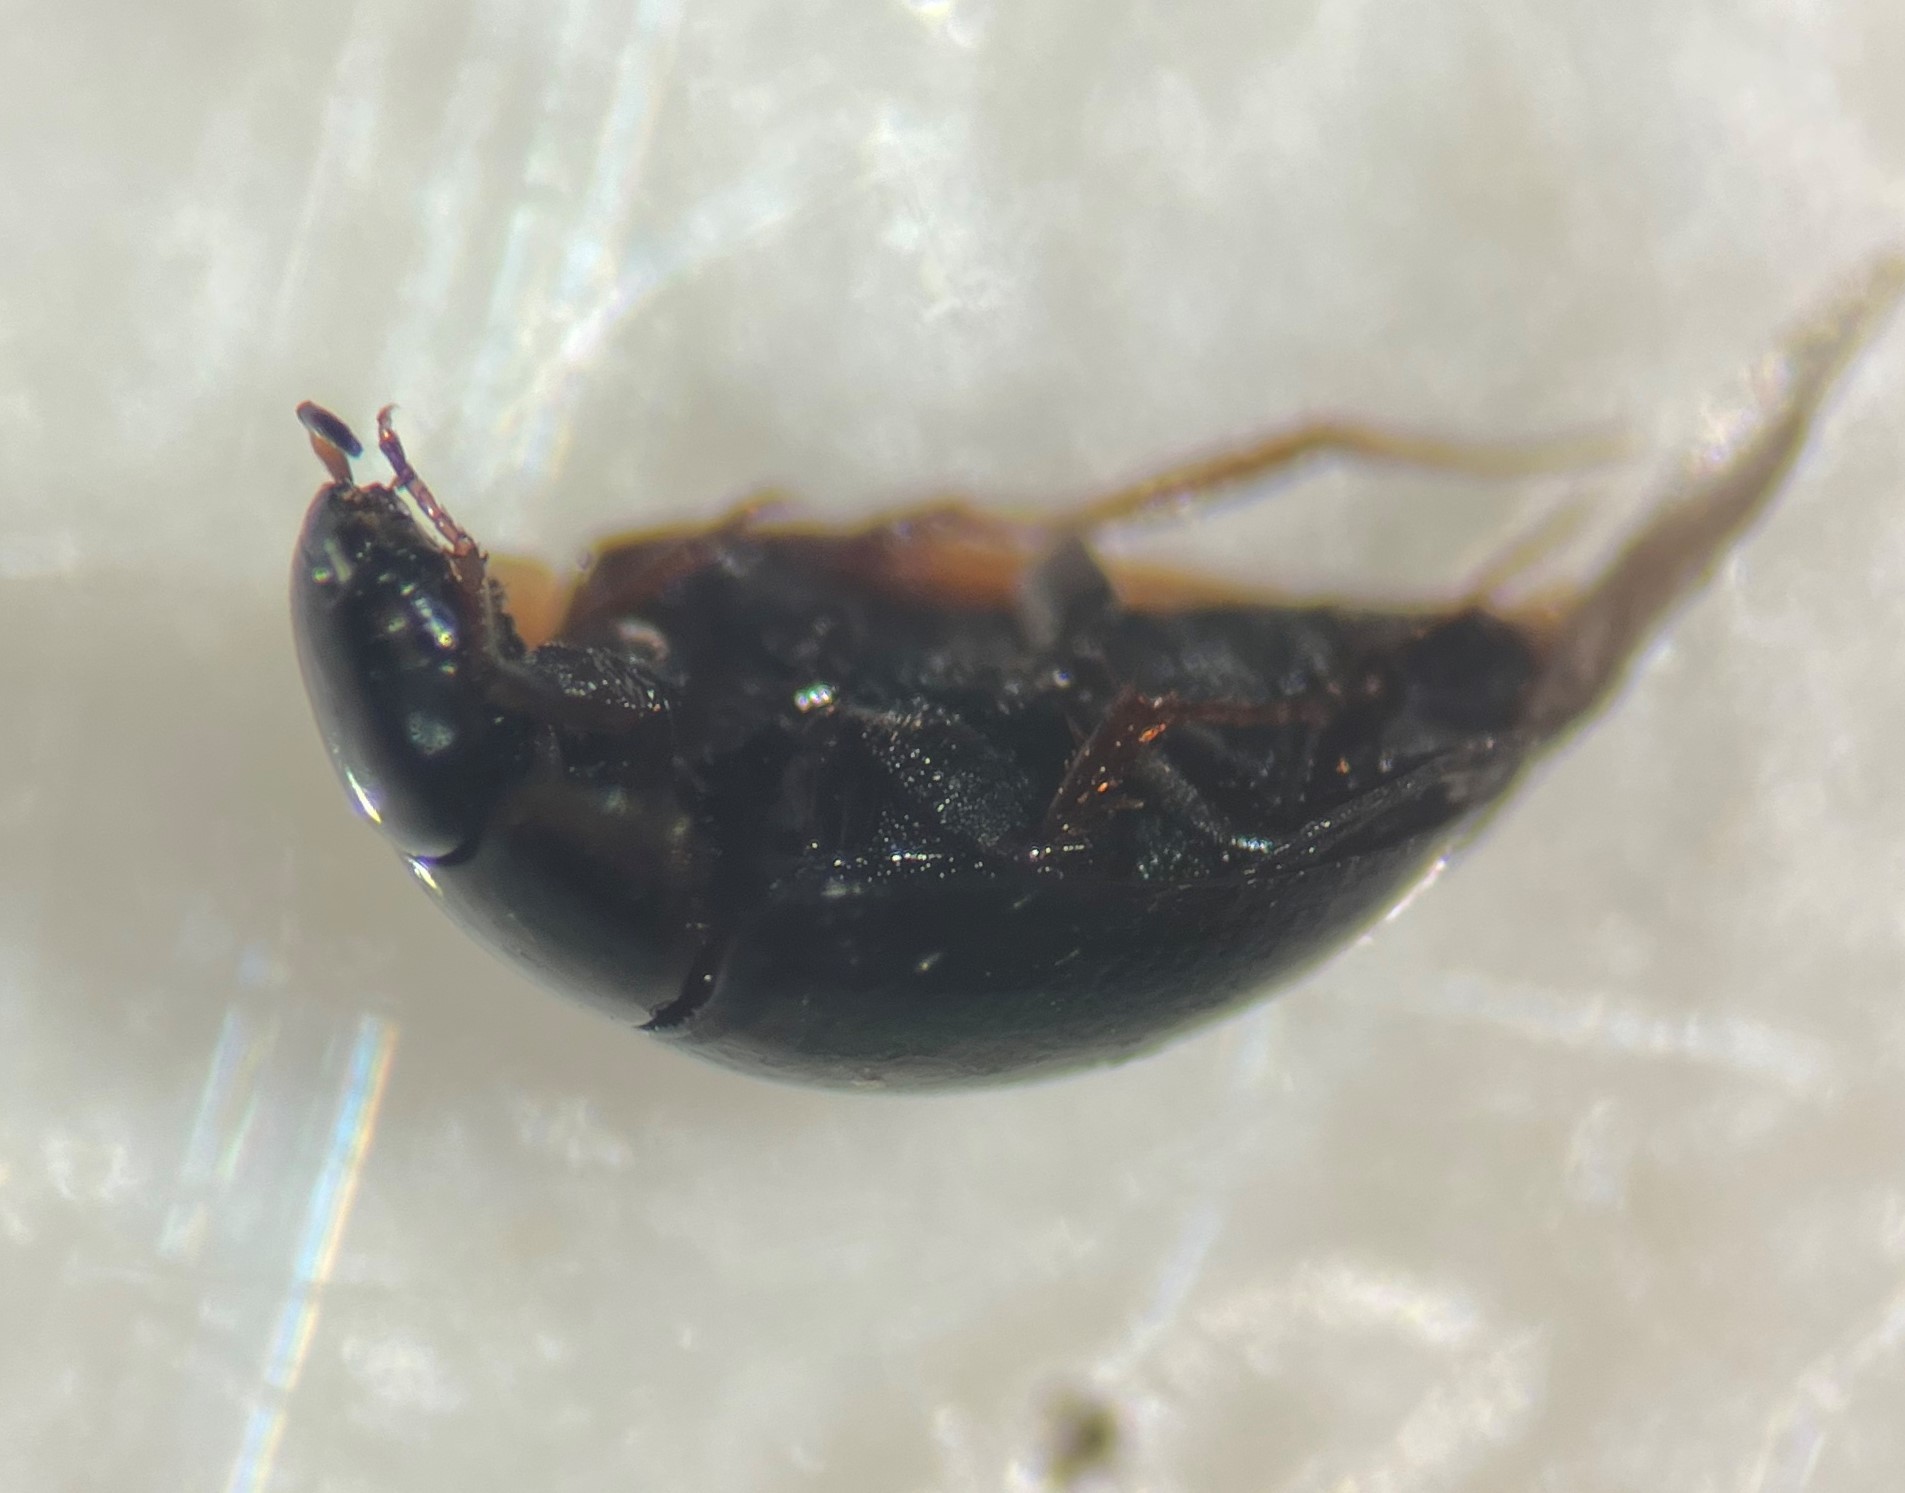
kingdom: Animalia
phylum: Arthropoda
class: Insecta
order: Coleoptera
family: Hydrophilidae
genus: Crenitulus
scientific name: Crenitulus suturalis
